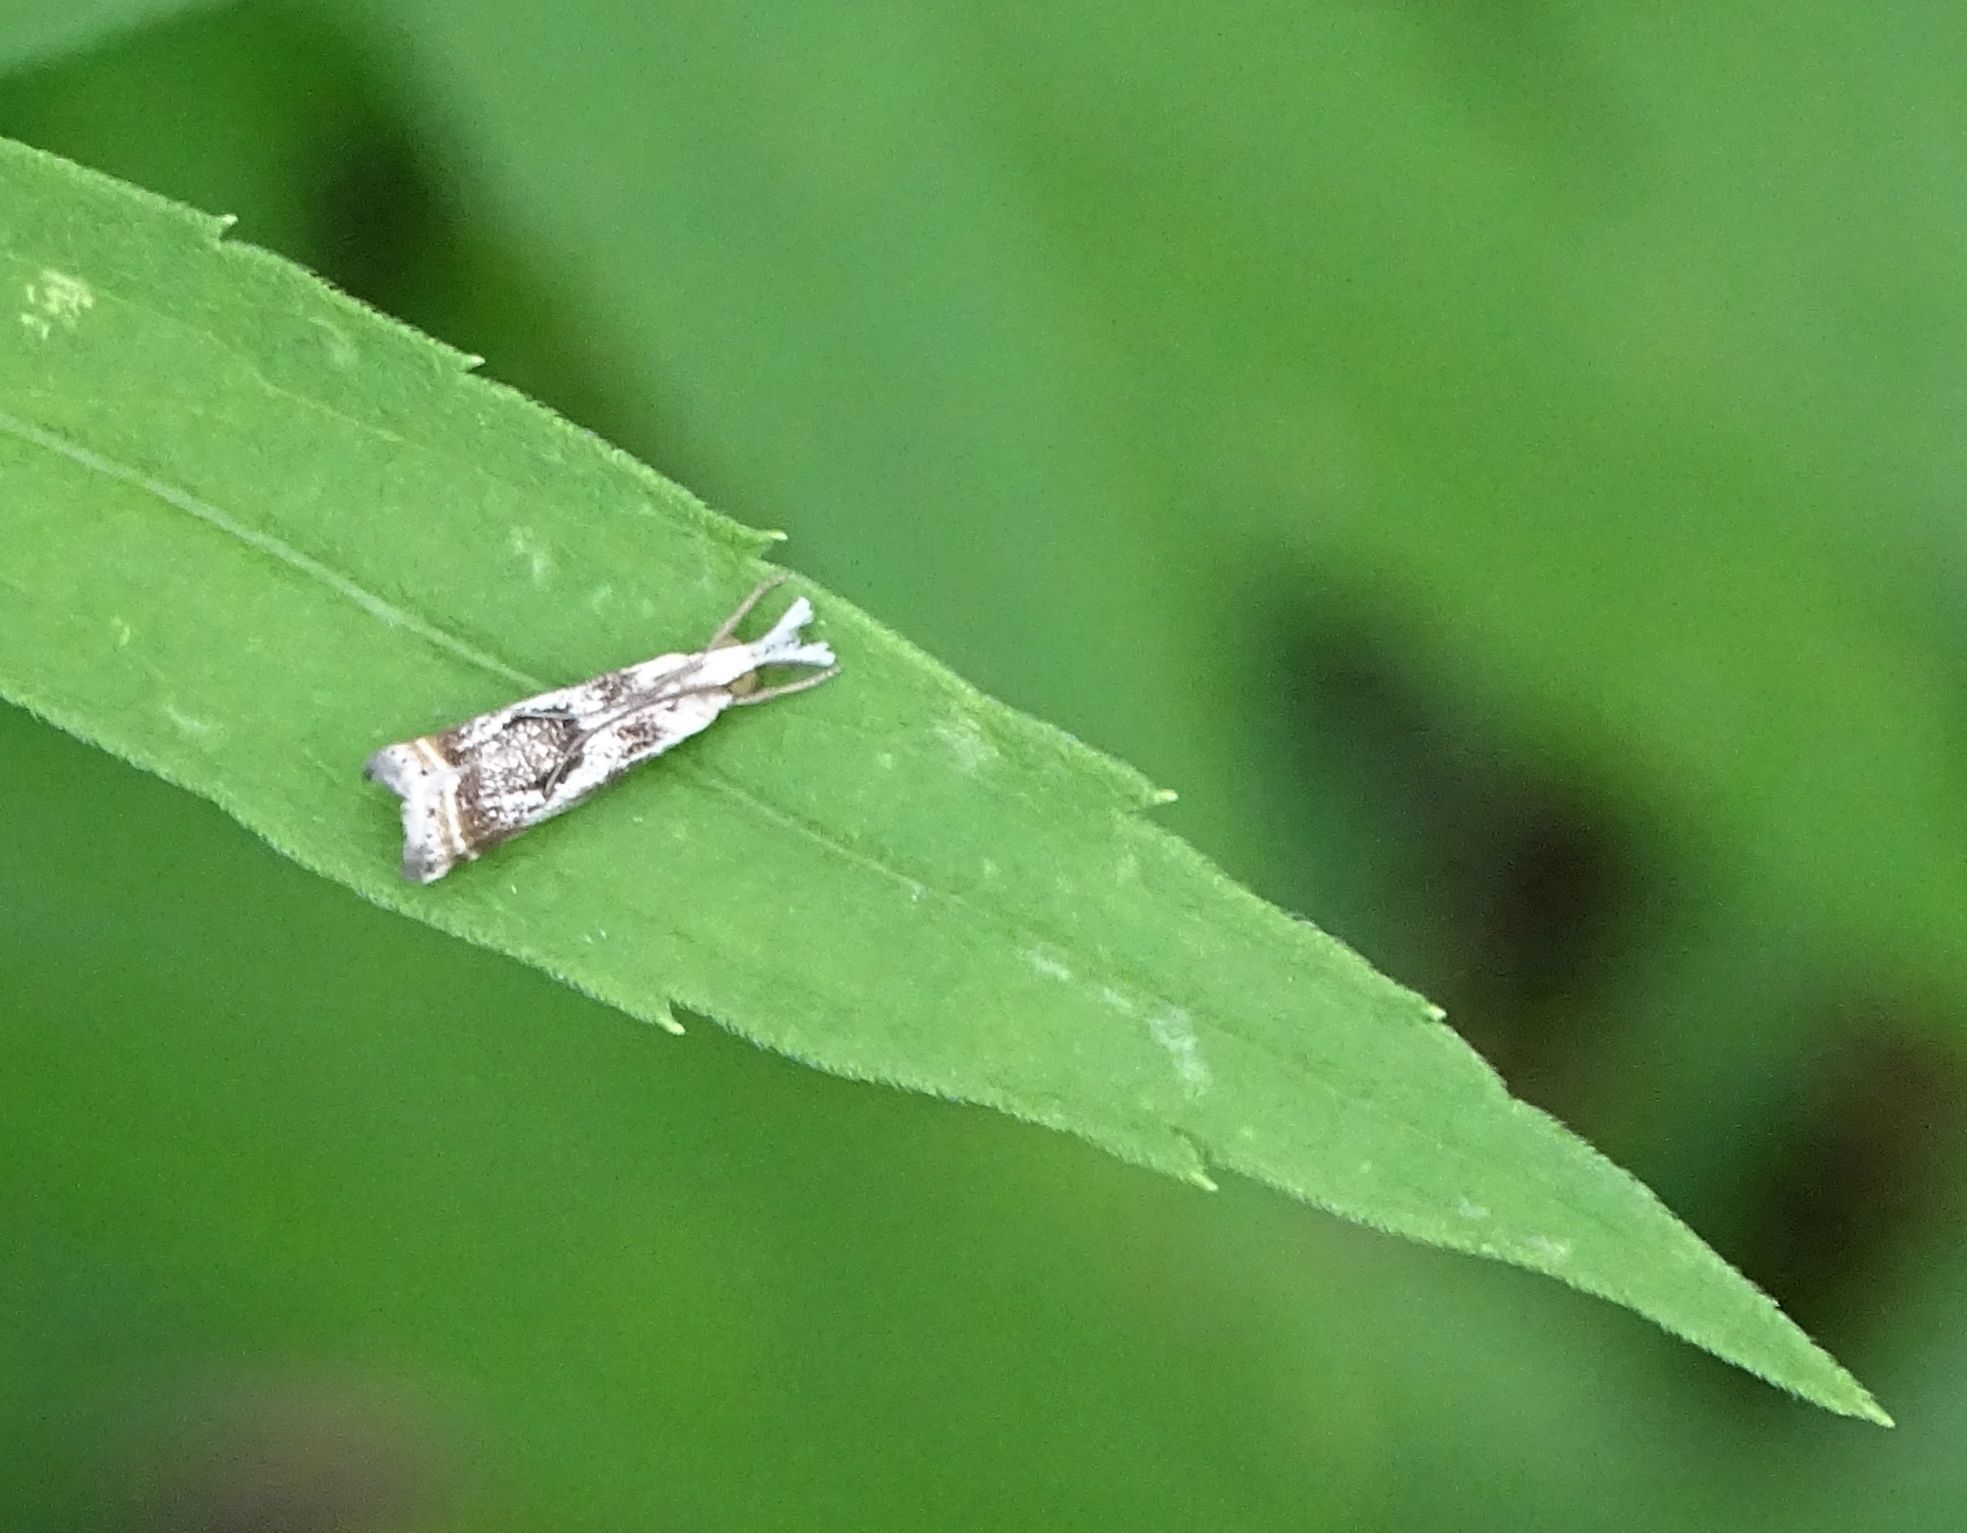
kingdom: Animalia
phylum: Arthropoda
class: Insecta
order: Lepidoptera
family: Crambidae
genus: Microcrambus
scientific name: Microcrambus elegans
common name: Elegant grass-veneer
